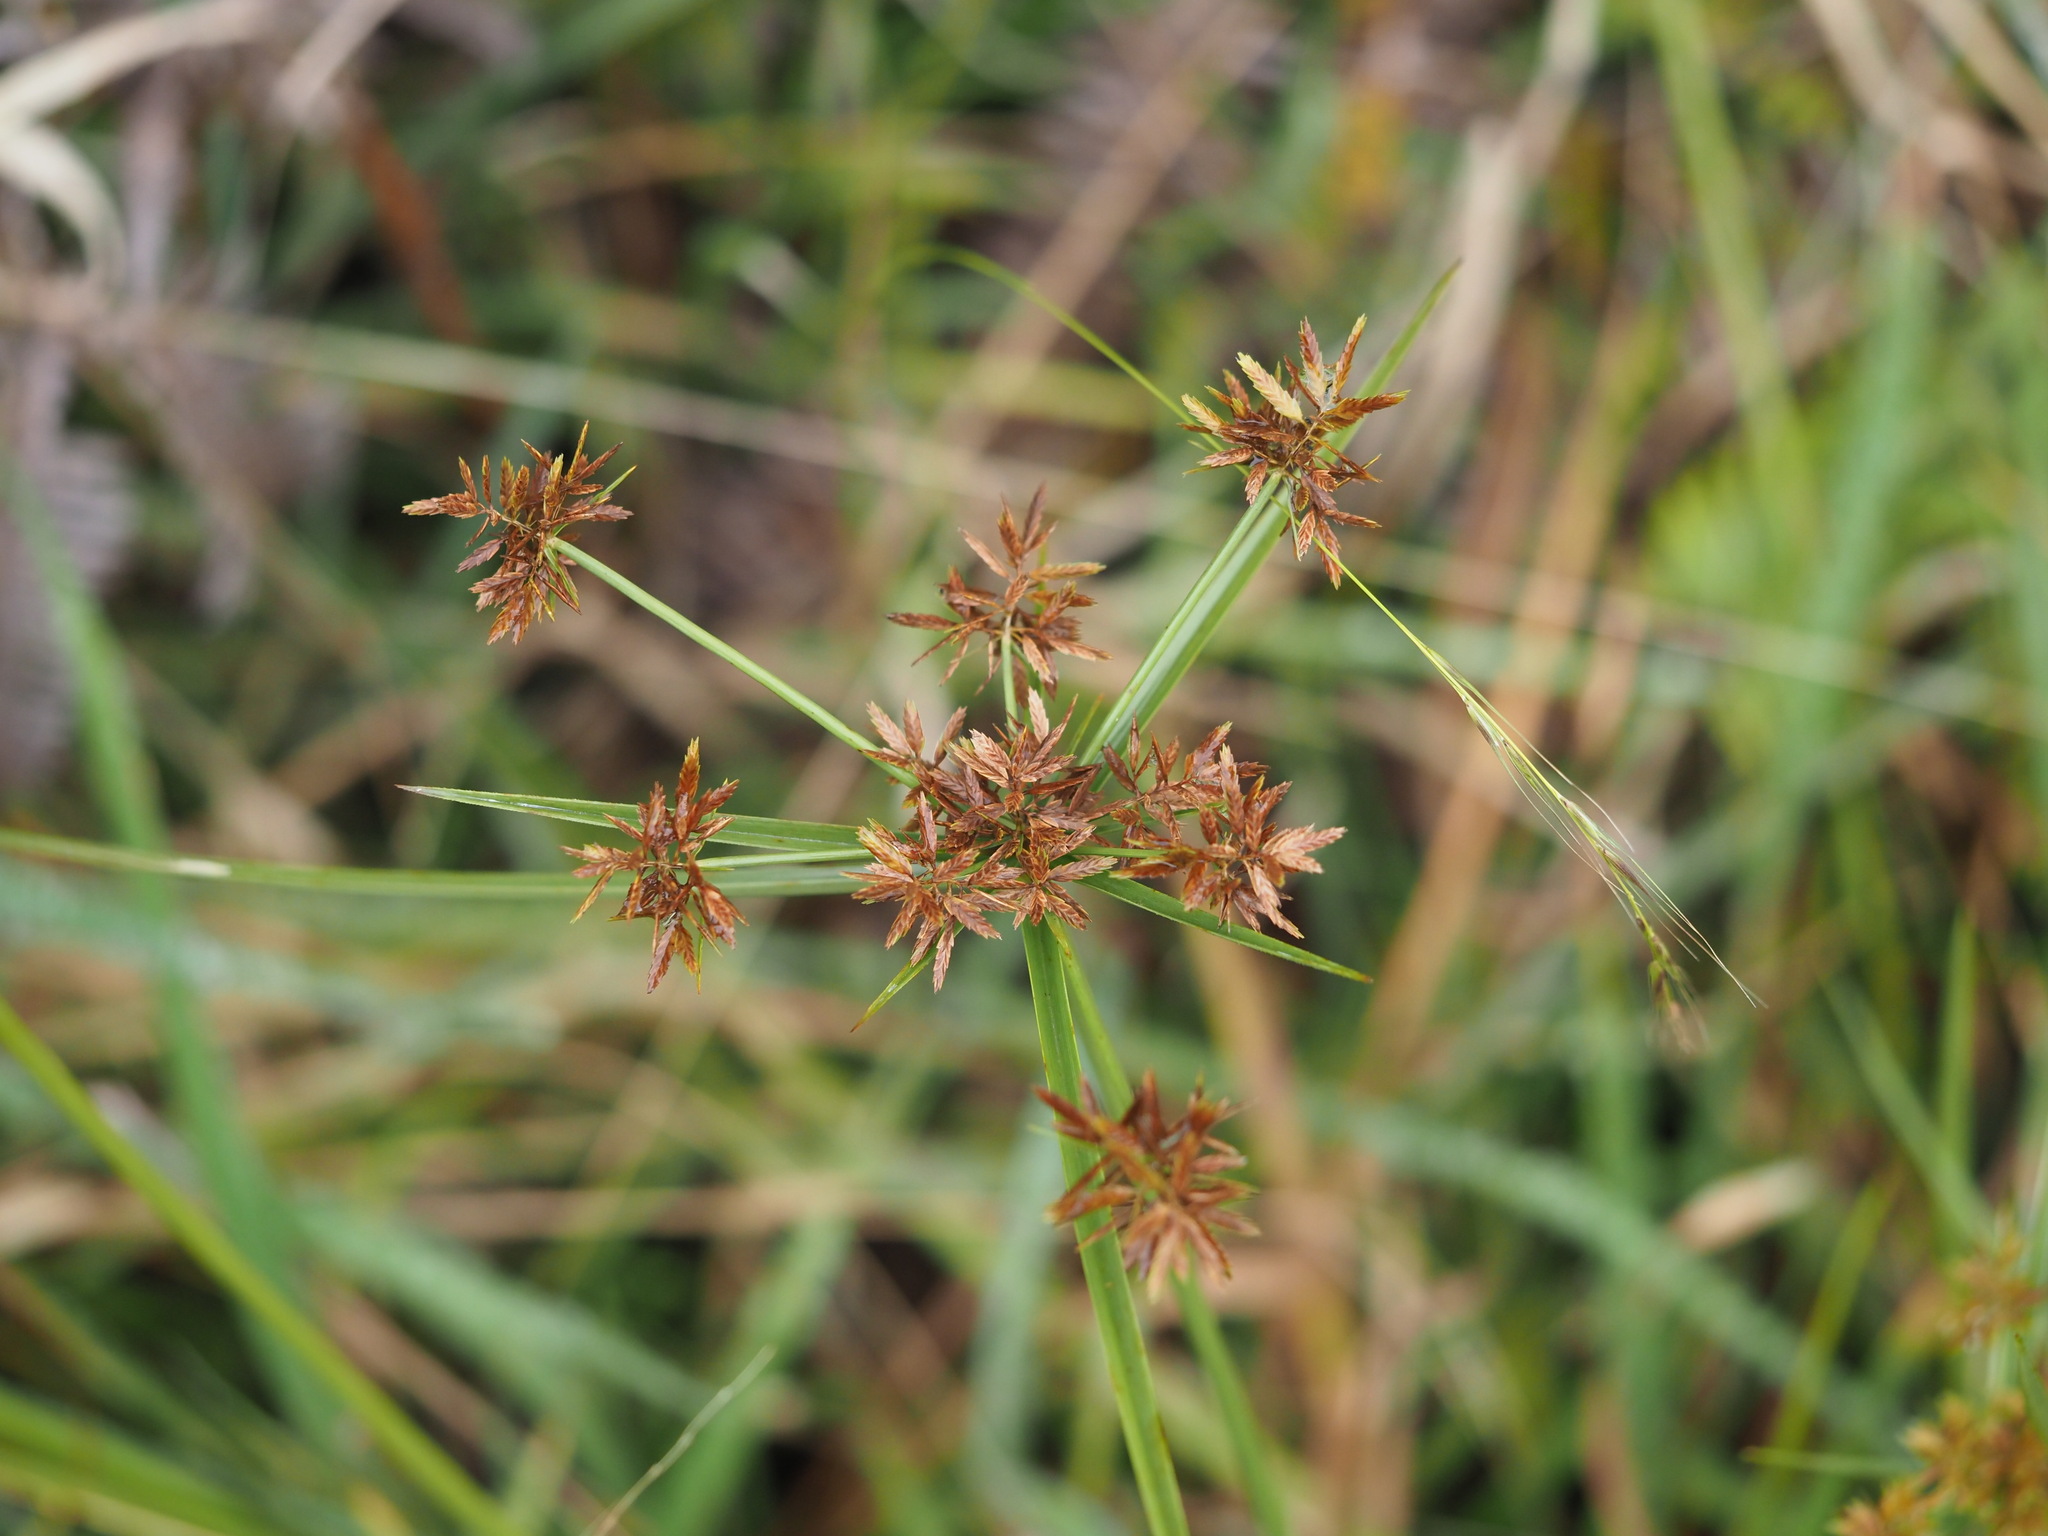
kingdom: Plantae
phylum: Tracheophyta
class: Liliopsida
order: Poales
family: Cyperaceae
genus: Cyperus
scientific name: Cyperus polystachyos
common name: Bunchy flat sedge
